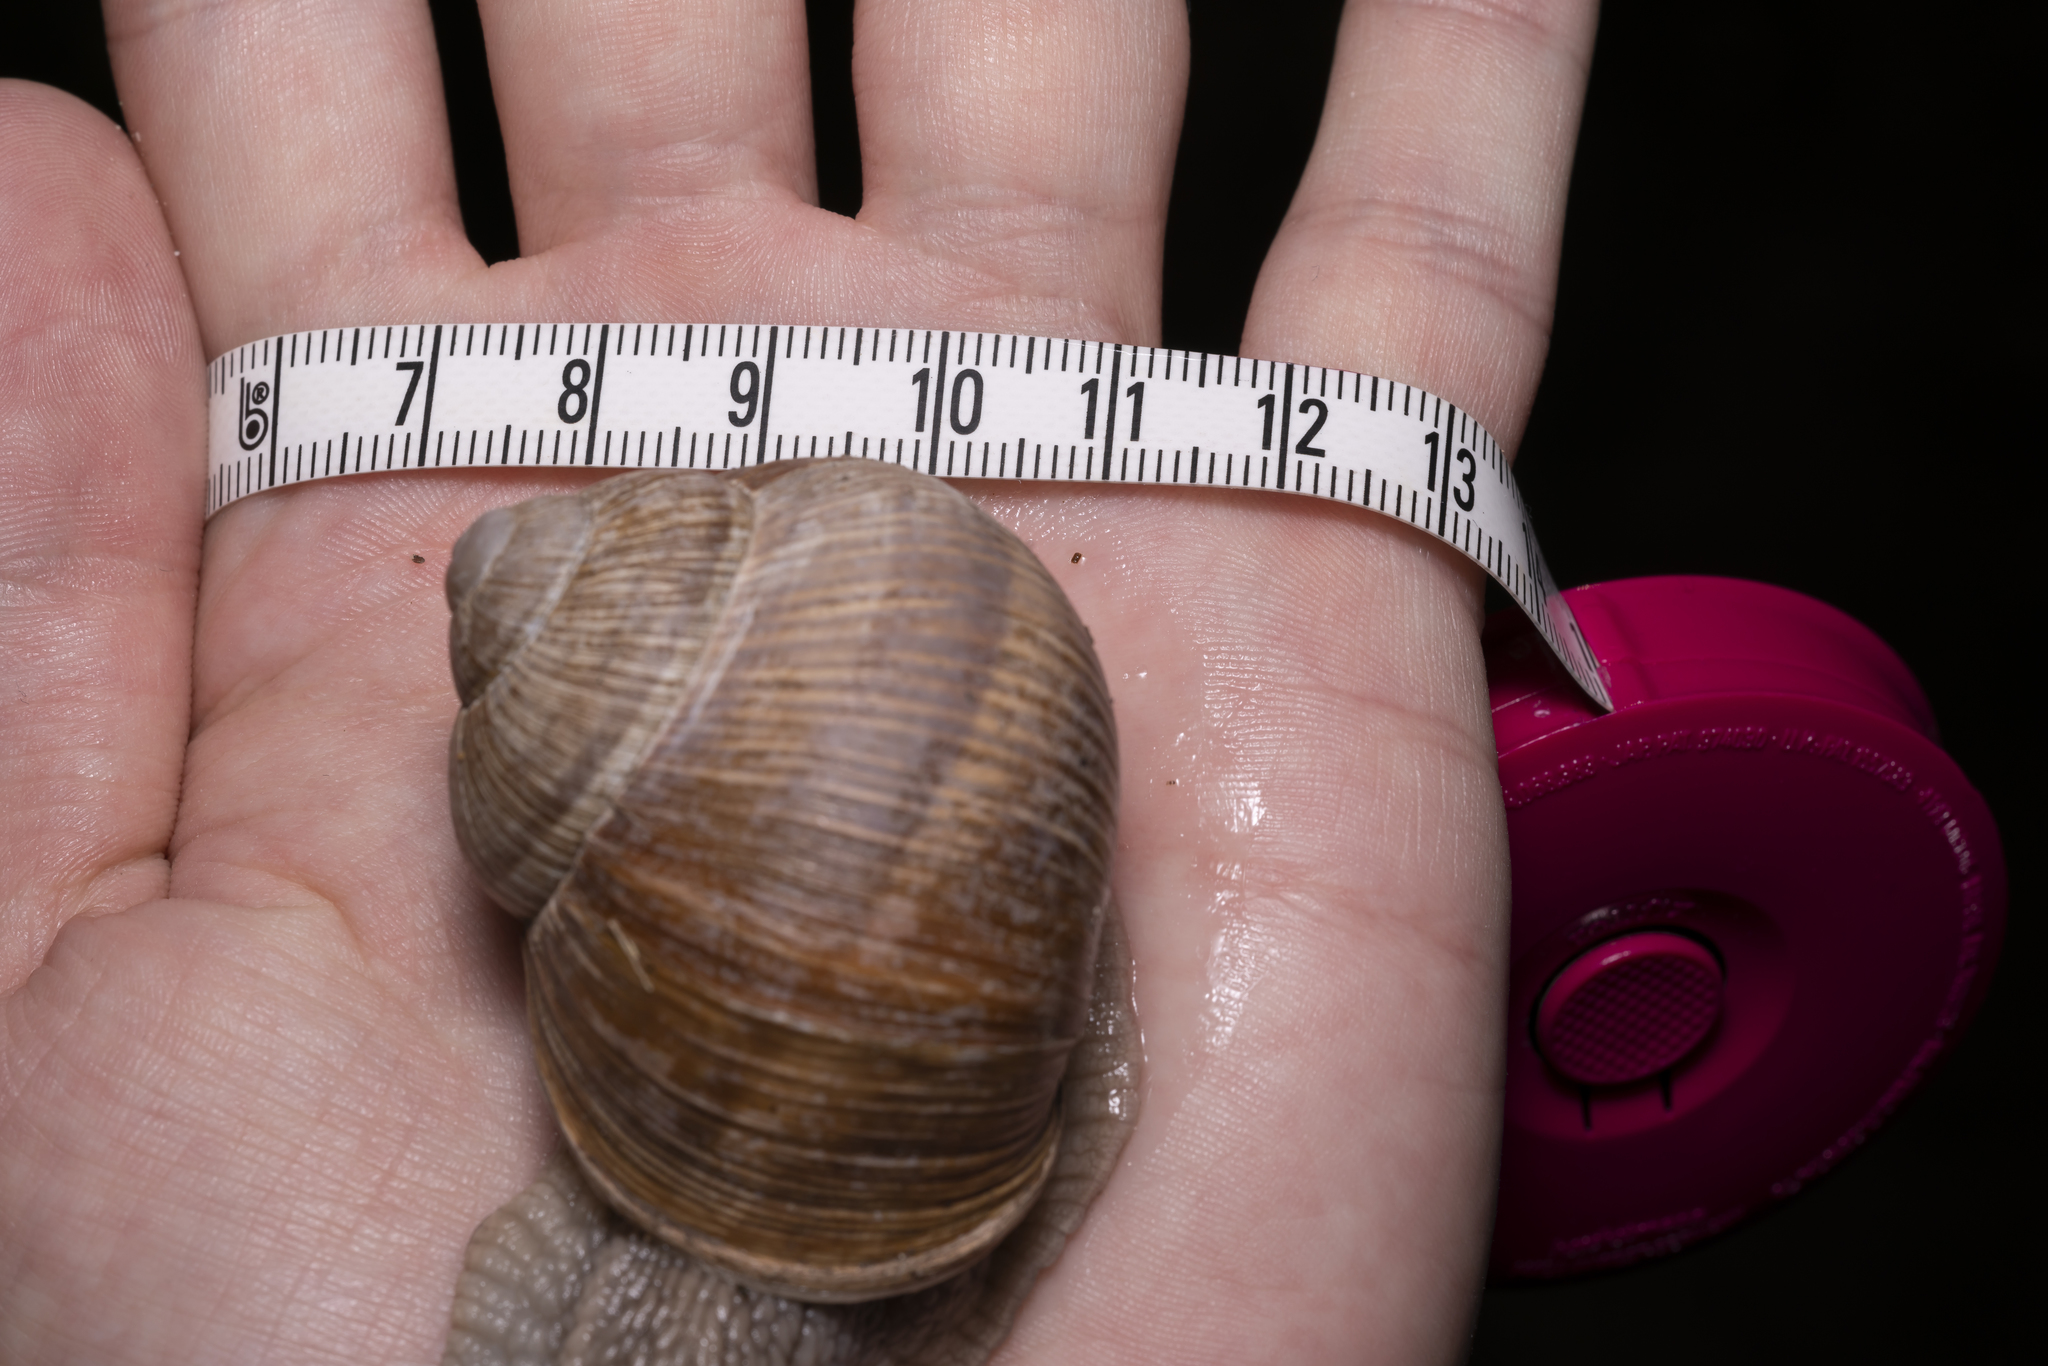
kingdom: Animalia
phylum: Mollusca
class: Gastropoda
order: Stylommatophora
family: Helicidae
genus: Helix
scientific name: Helix pomatia
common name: Roman snail
